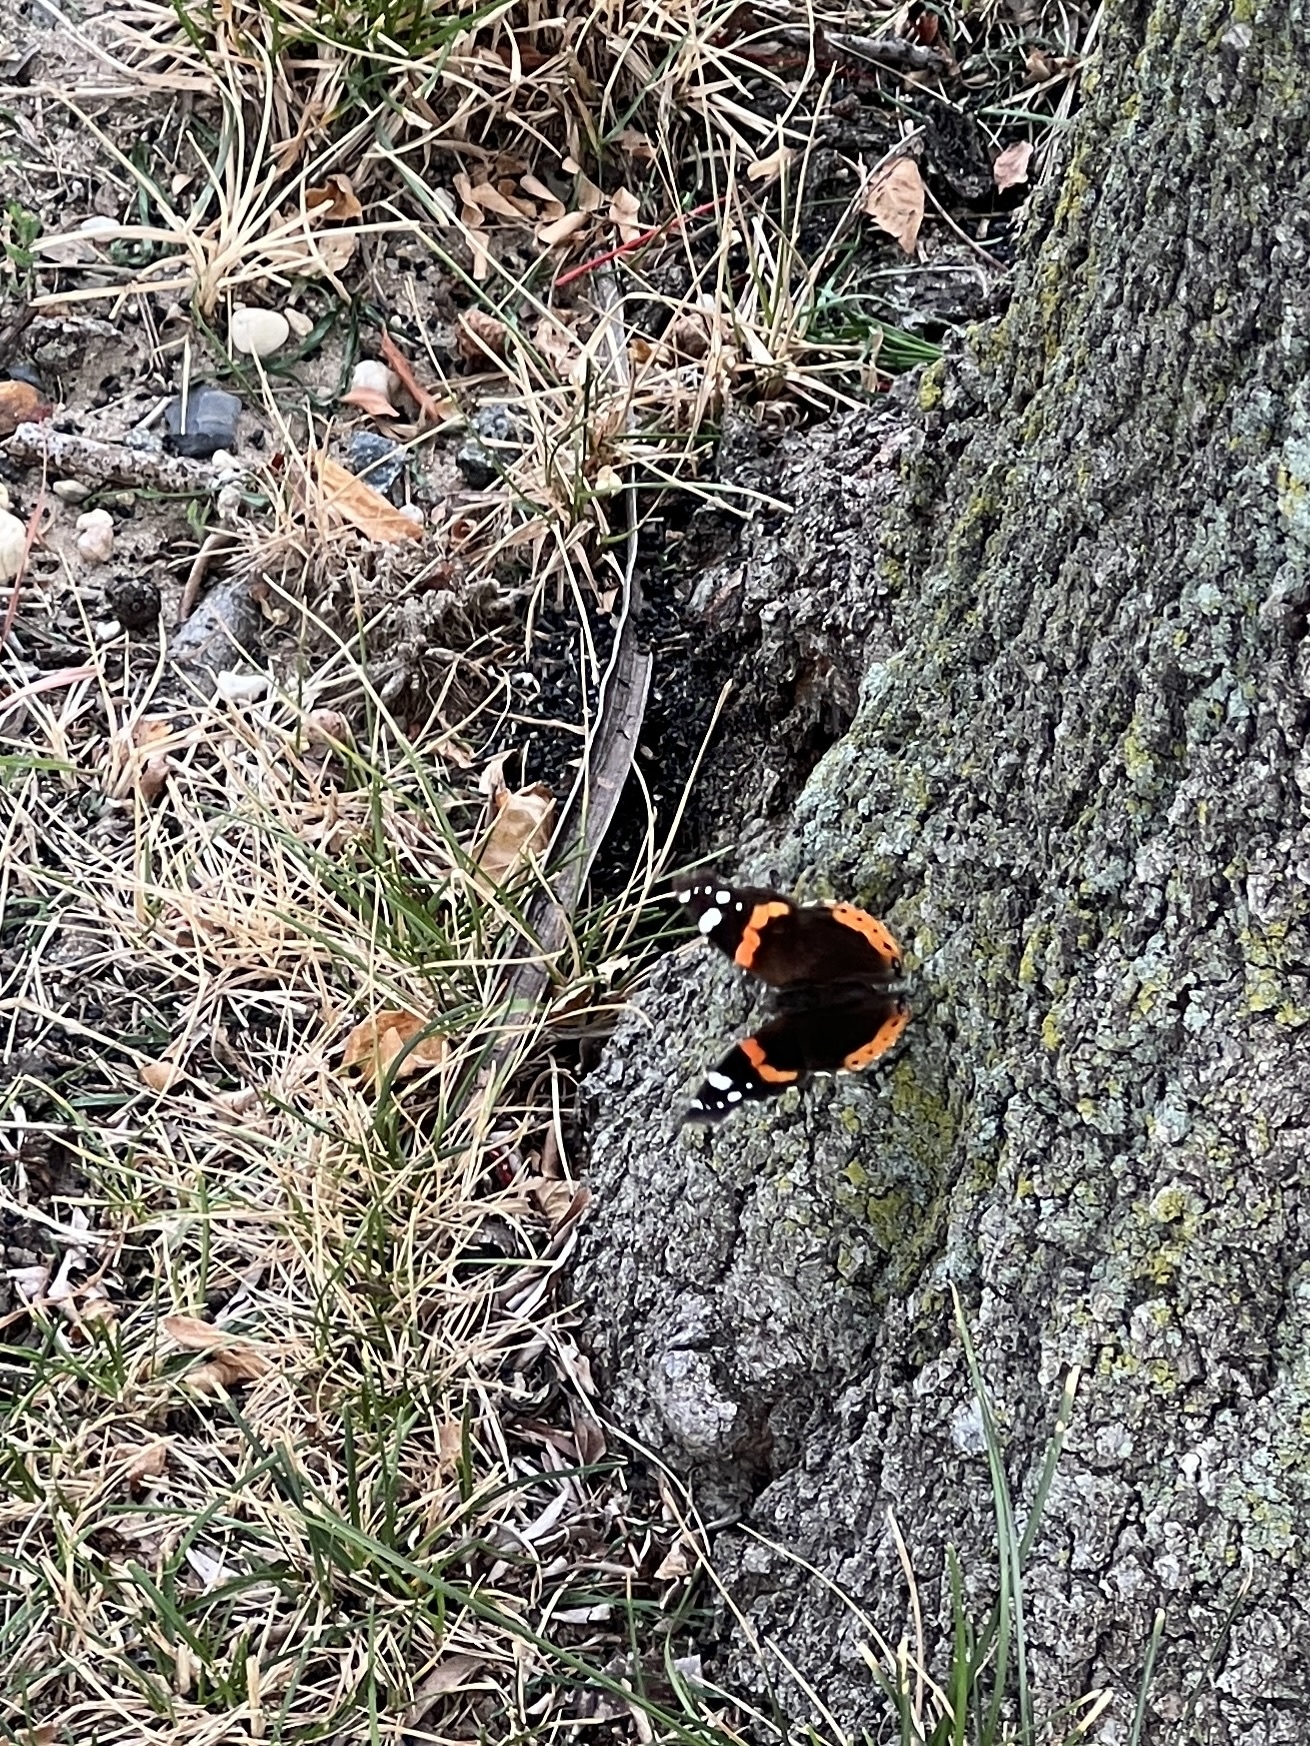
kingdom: Animalia
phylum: Arthropoda
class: Insecta
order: Lepidoptera
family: Nymphalidae
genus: Vanessa
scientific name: Vanessa atalanta
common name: Red admiral
